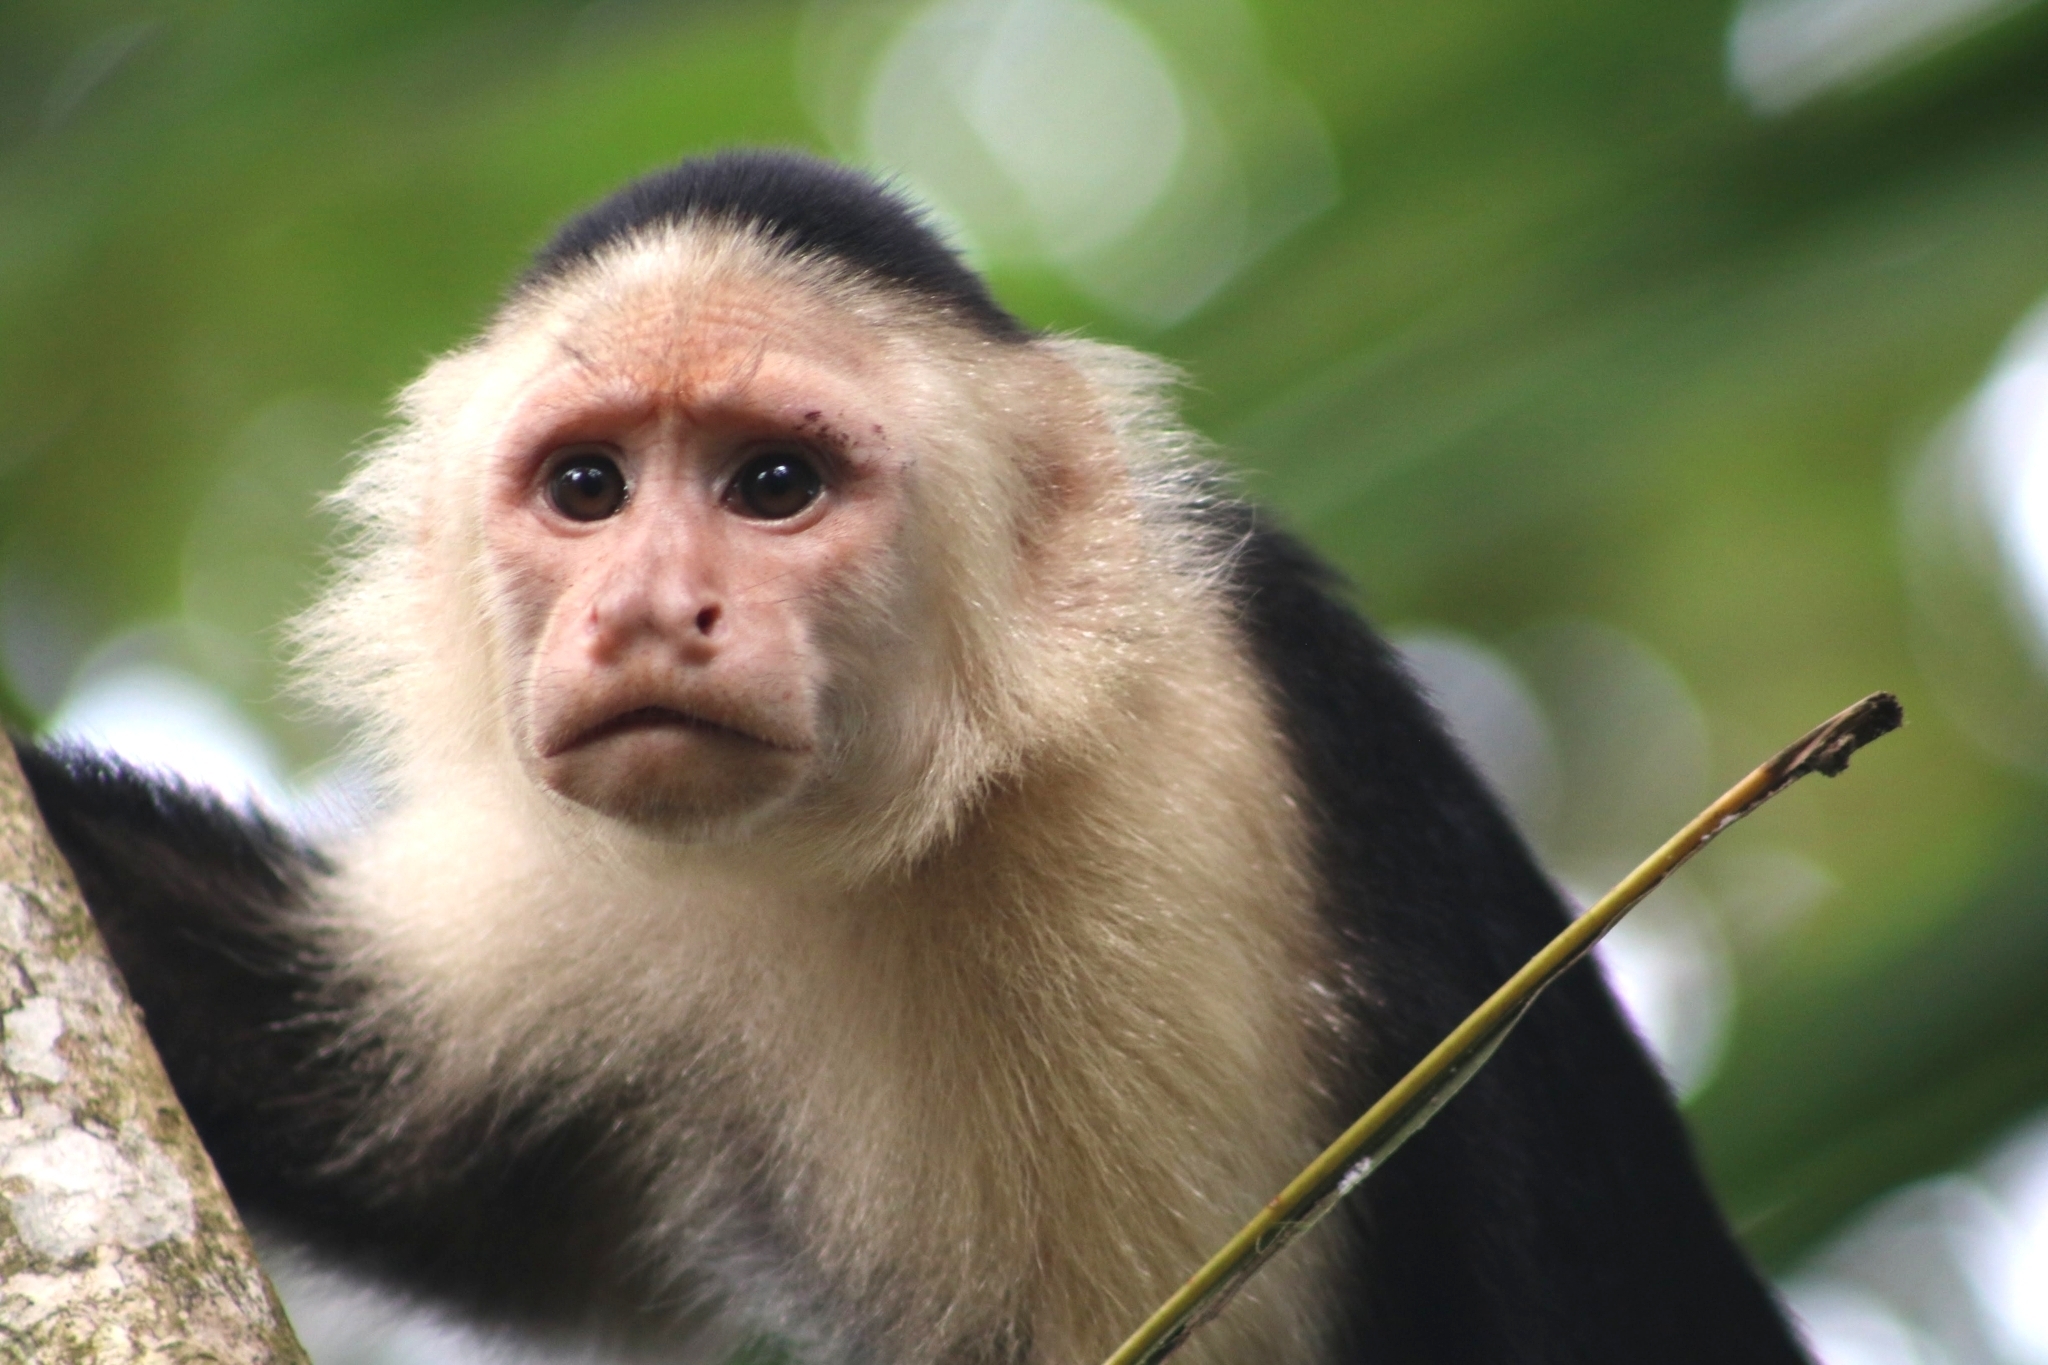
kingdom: Animalia
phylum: Chordata
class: Mammalia
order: Primates
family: Cebidae
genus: Cebus
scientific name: Cebus imitator
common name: Panamanian white-faced capuchin
